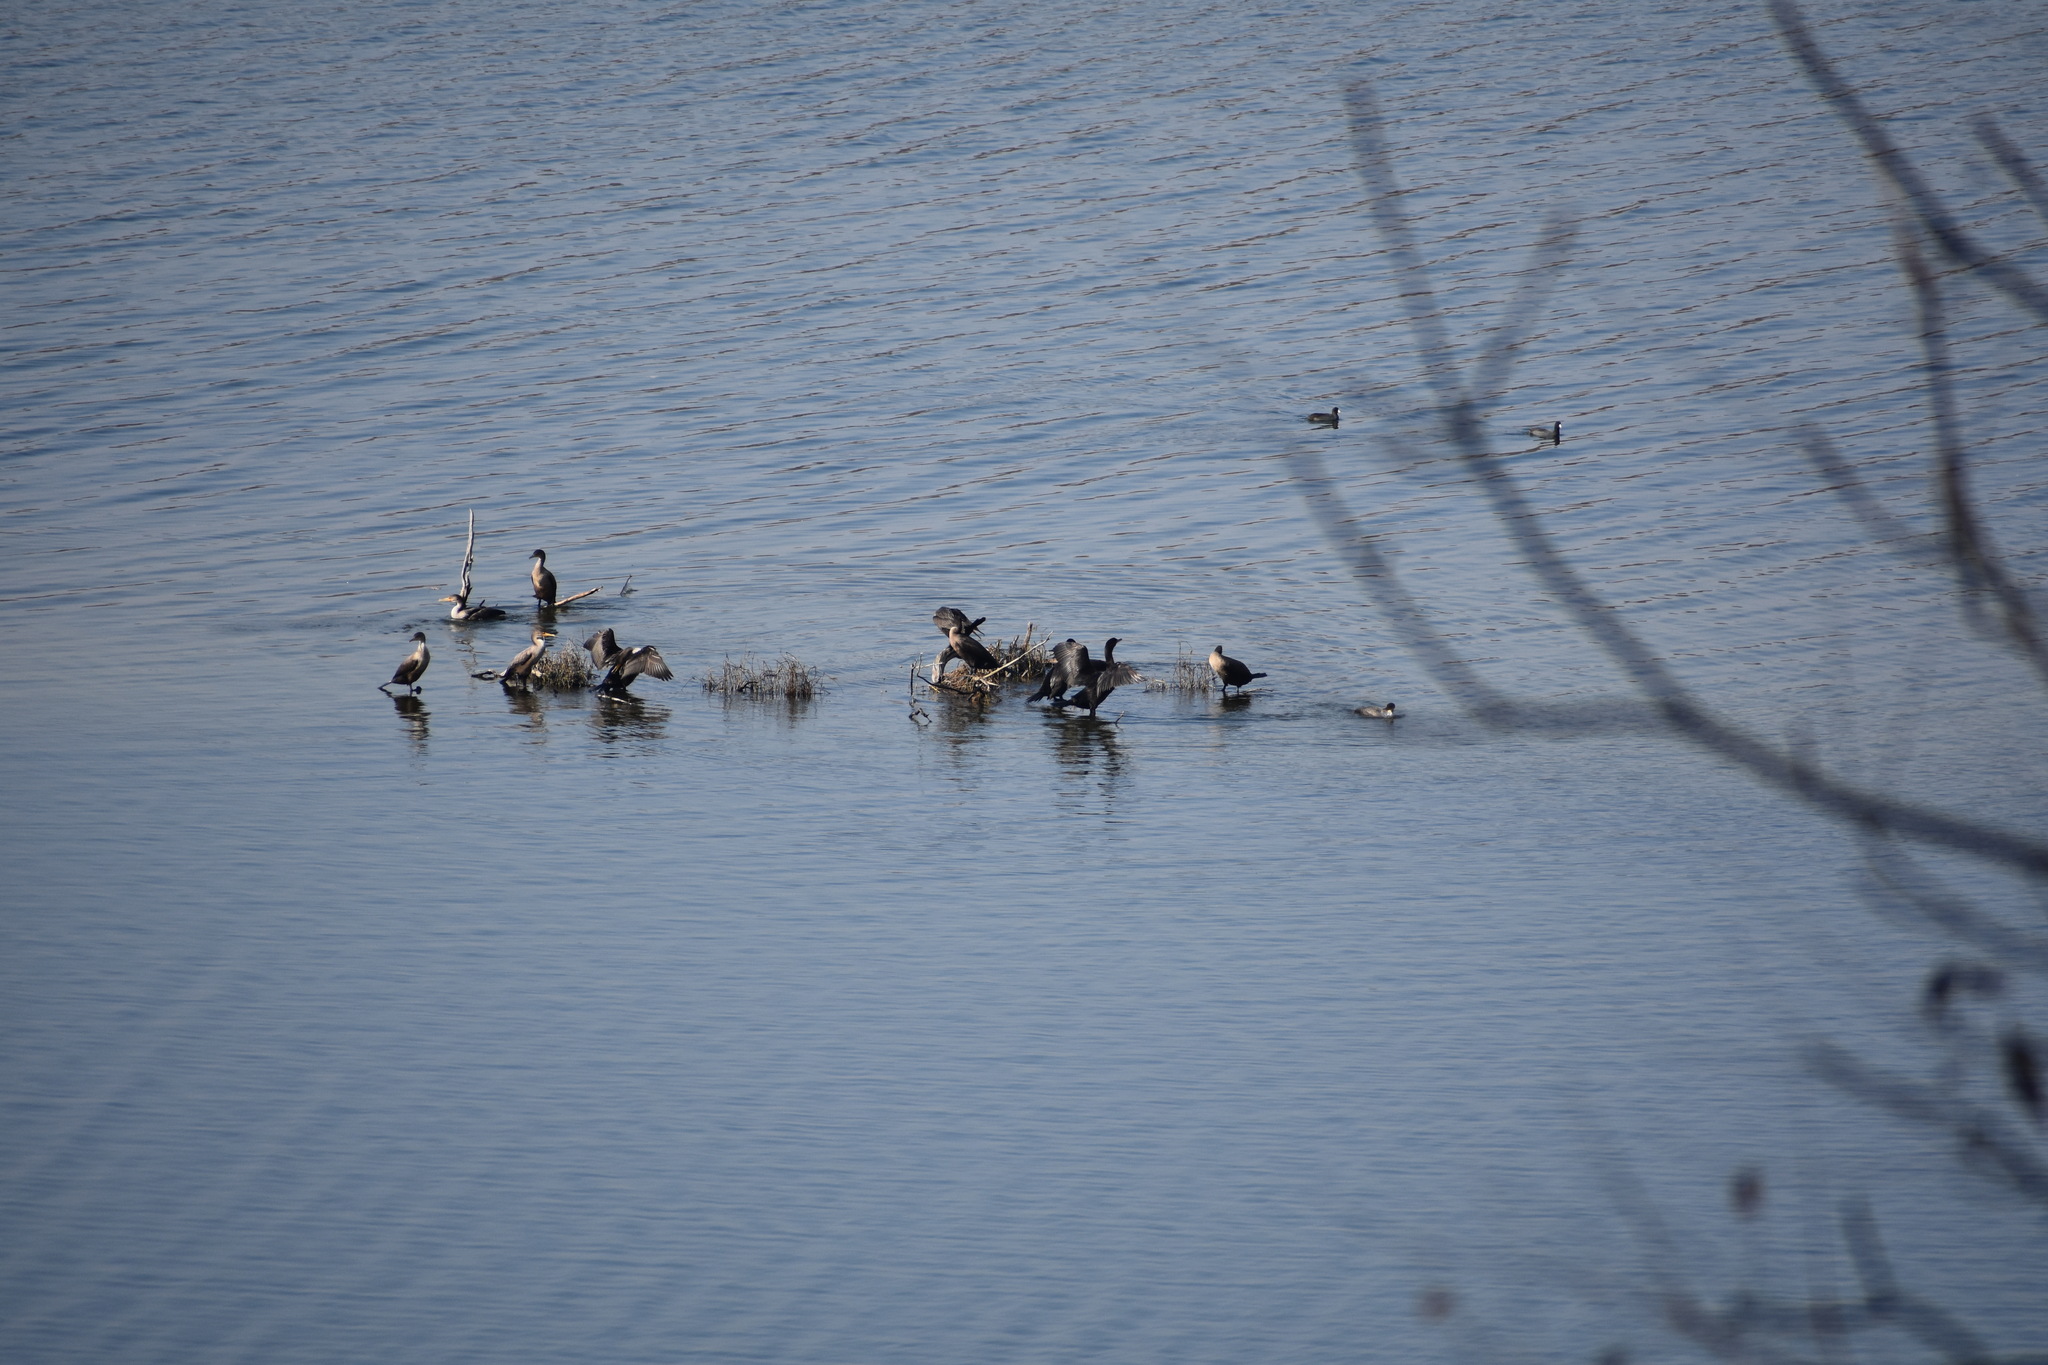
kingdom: Animalia
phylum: Chordata
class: Aves
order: Suliformes
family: Phalacrocoracidae
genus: Phalacrocorax
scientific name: Phalacrocorax auritus
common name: Double-crested cormorant
